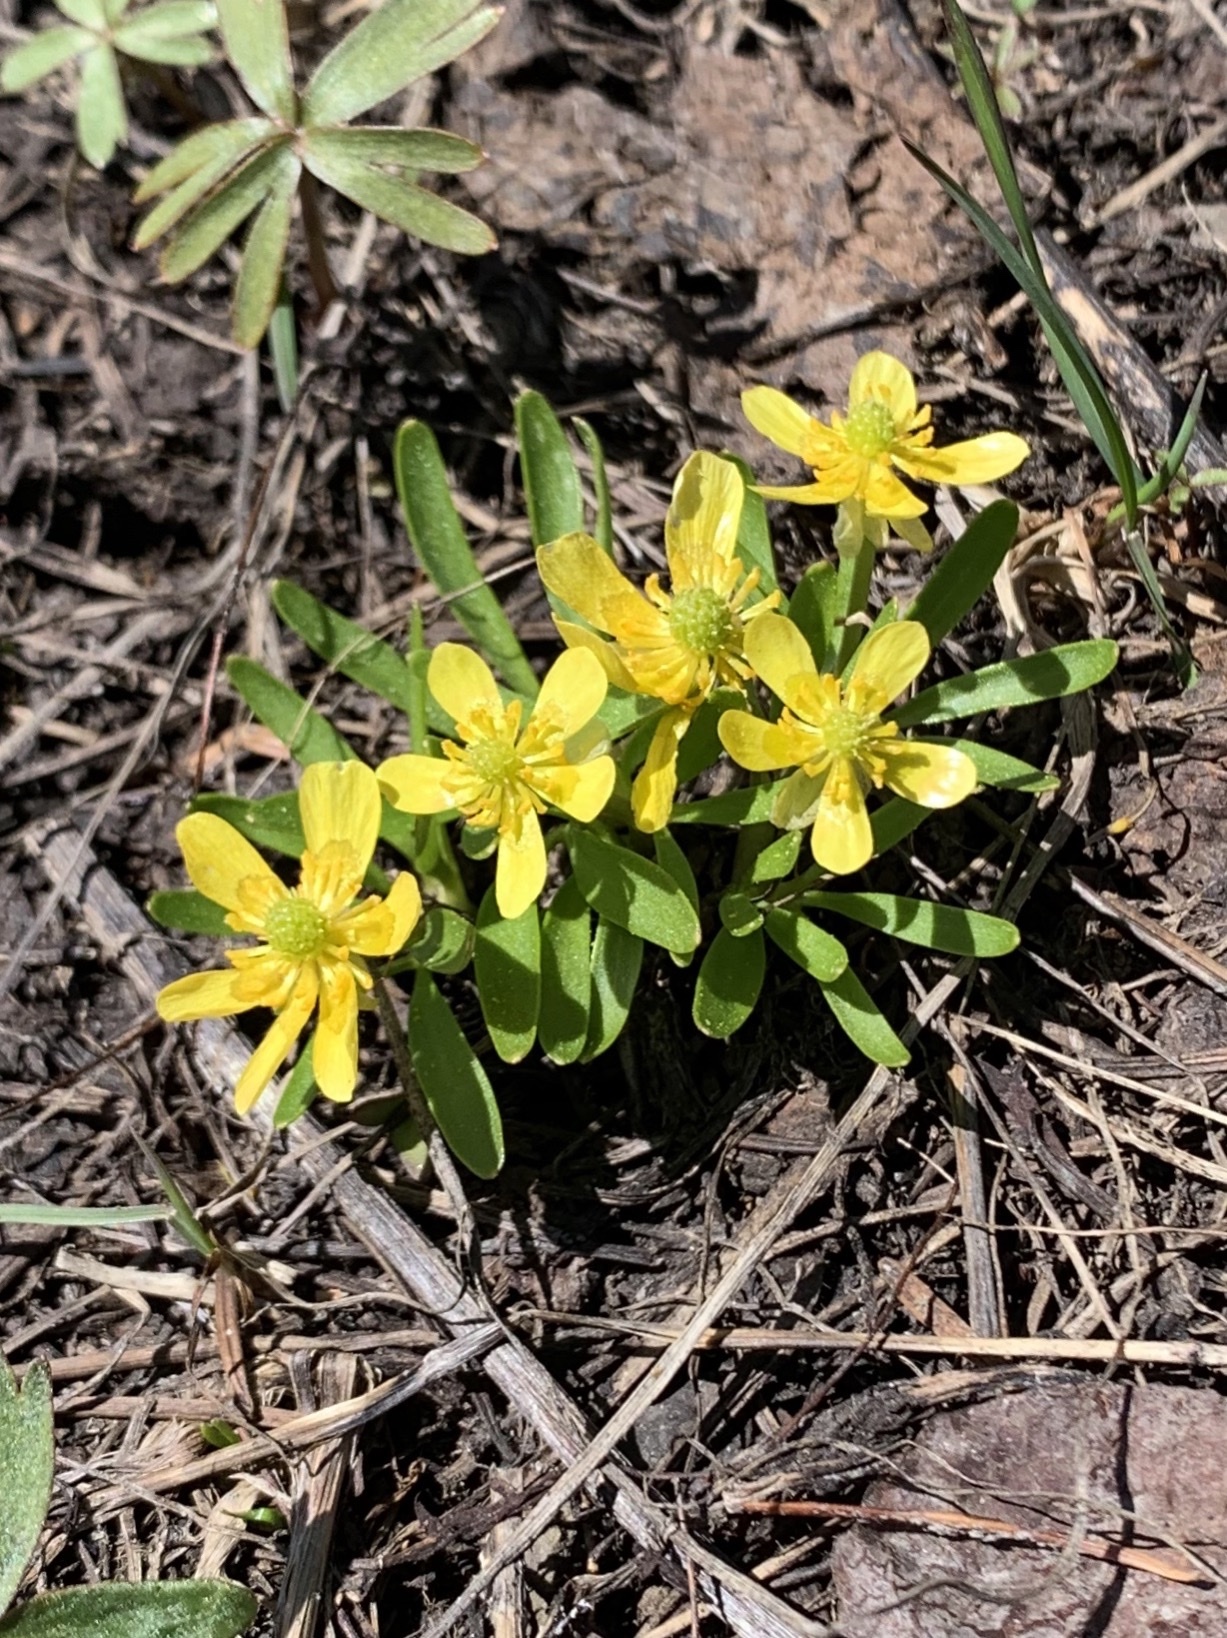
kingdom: Plantae
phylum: Tracheophyta
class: Magnoliopsida
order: Ranunculales
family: Ranunculaceae
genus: Ranunculus
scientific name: Ranunculus glaberrimus
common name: Sagebrush buttercup
